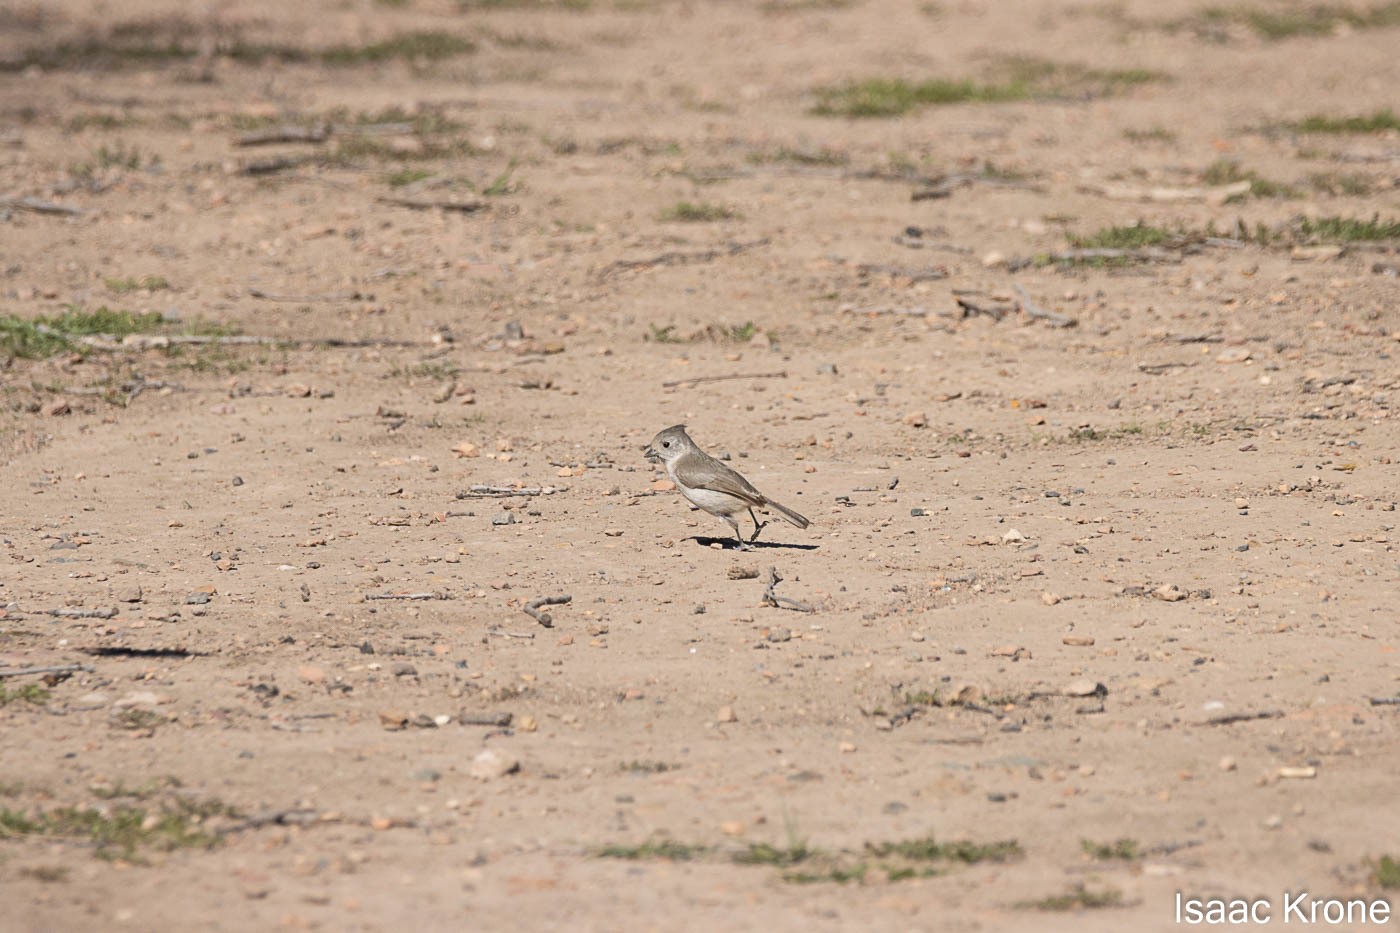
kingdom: Animalia
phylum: Chordata
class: Aves
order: Passeriformes
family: Paridae
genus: Baeolophus
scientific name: Baeolophus inornatus
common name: Oak titmouse
